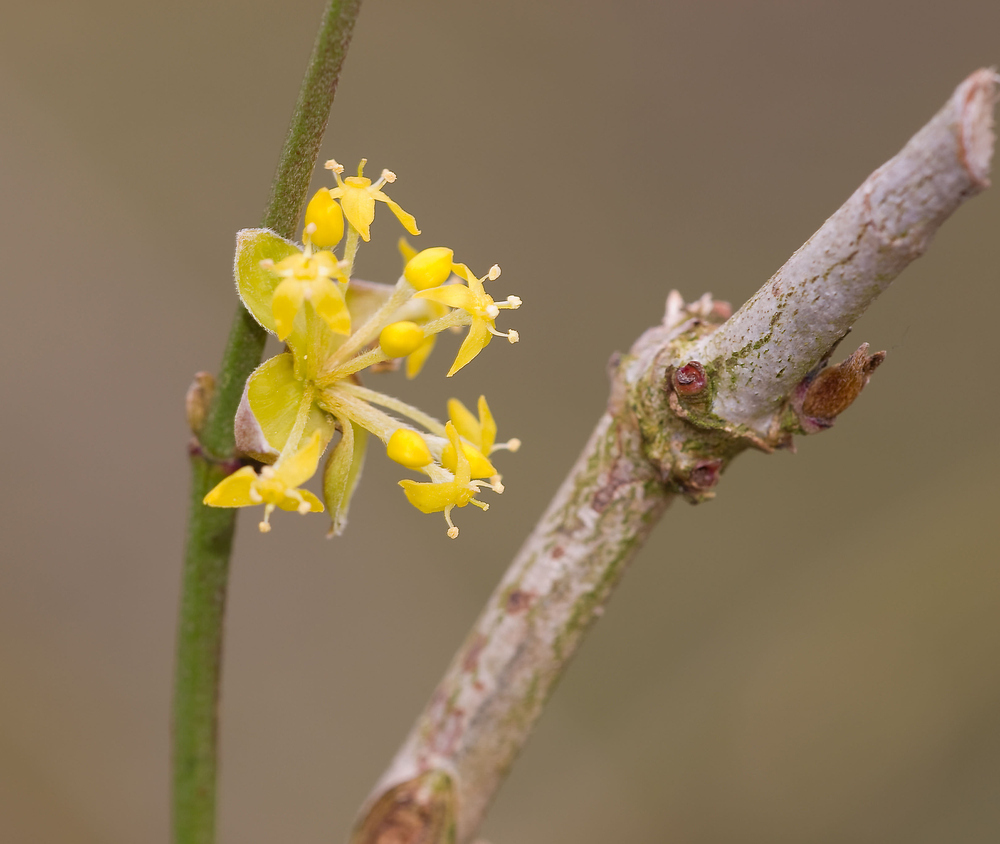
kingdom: Plantae
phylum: Tracheophyta
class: Magnoliopsida
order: Cornales
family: Cornaceae
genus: Cornus
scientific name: Cornus mas
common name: Cornelian-cherry
